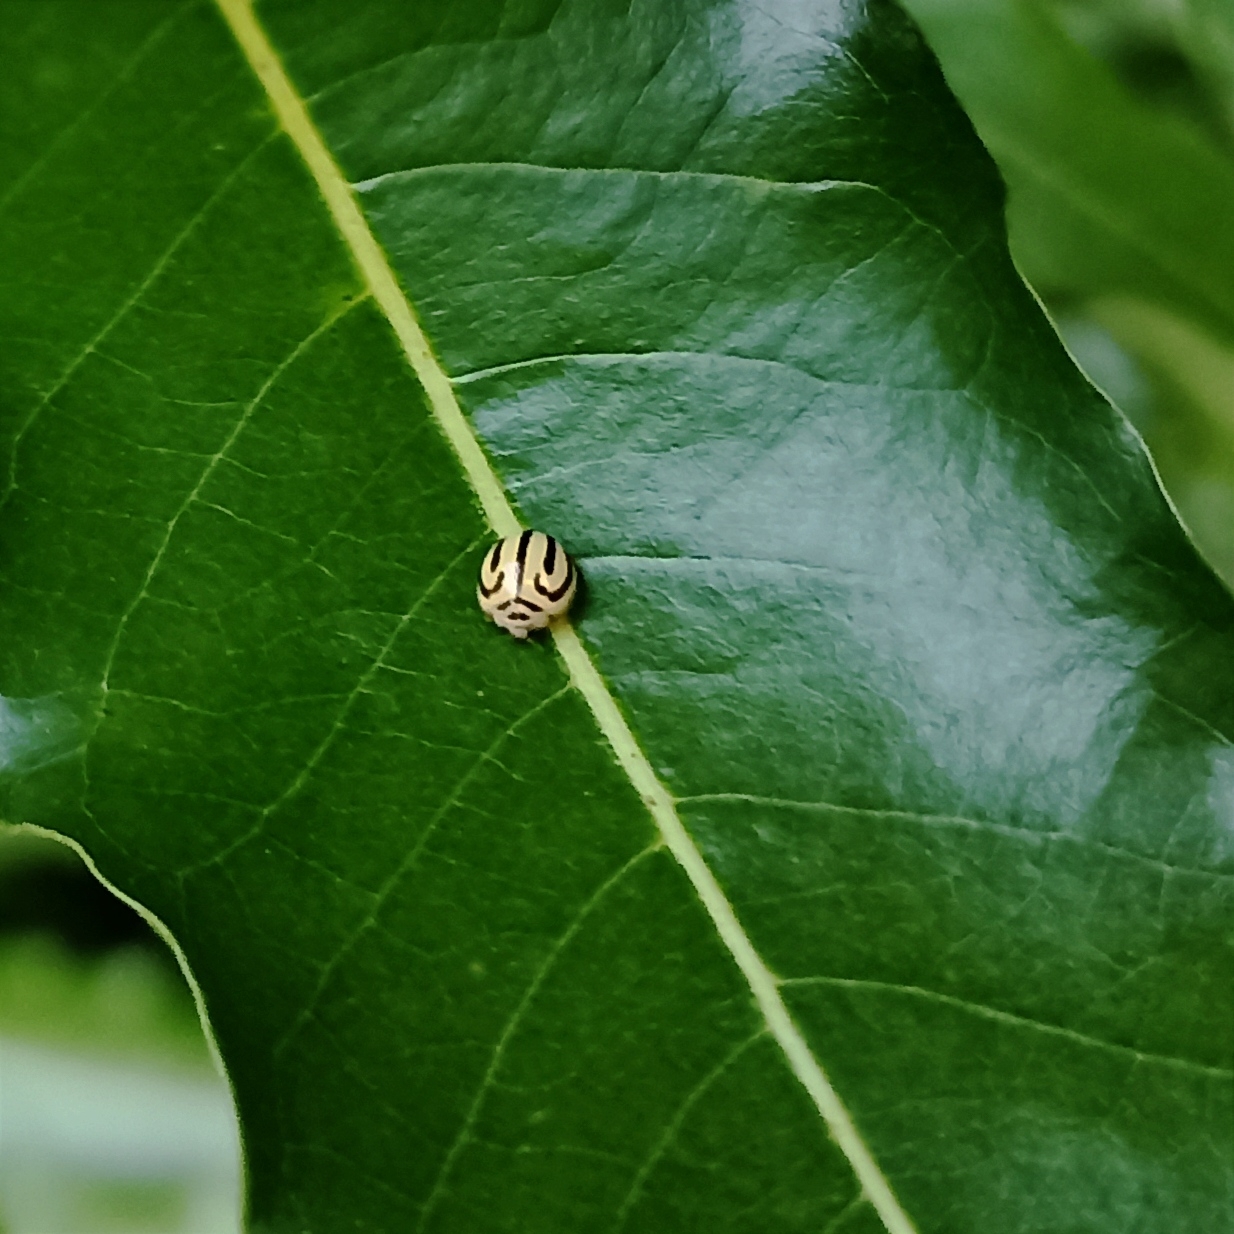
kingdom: Animalia
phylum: Arthropoda
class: Insecta
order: Coleoptera
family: Coccinellidae
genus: Anegleis
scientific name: Anegleis cardoni
